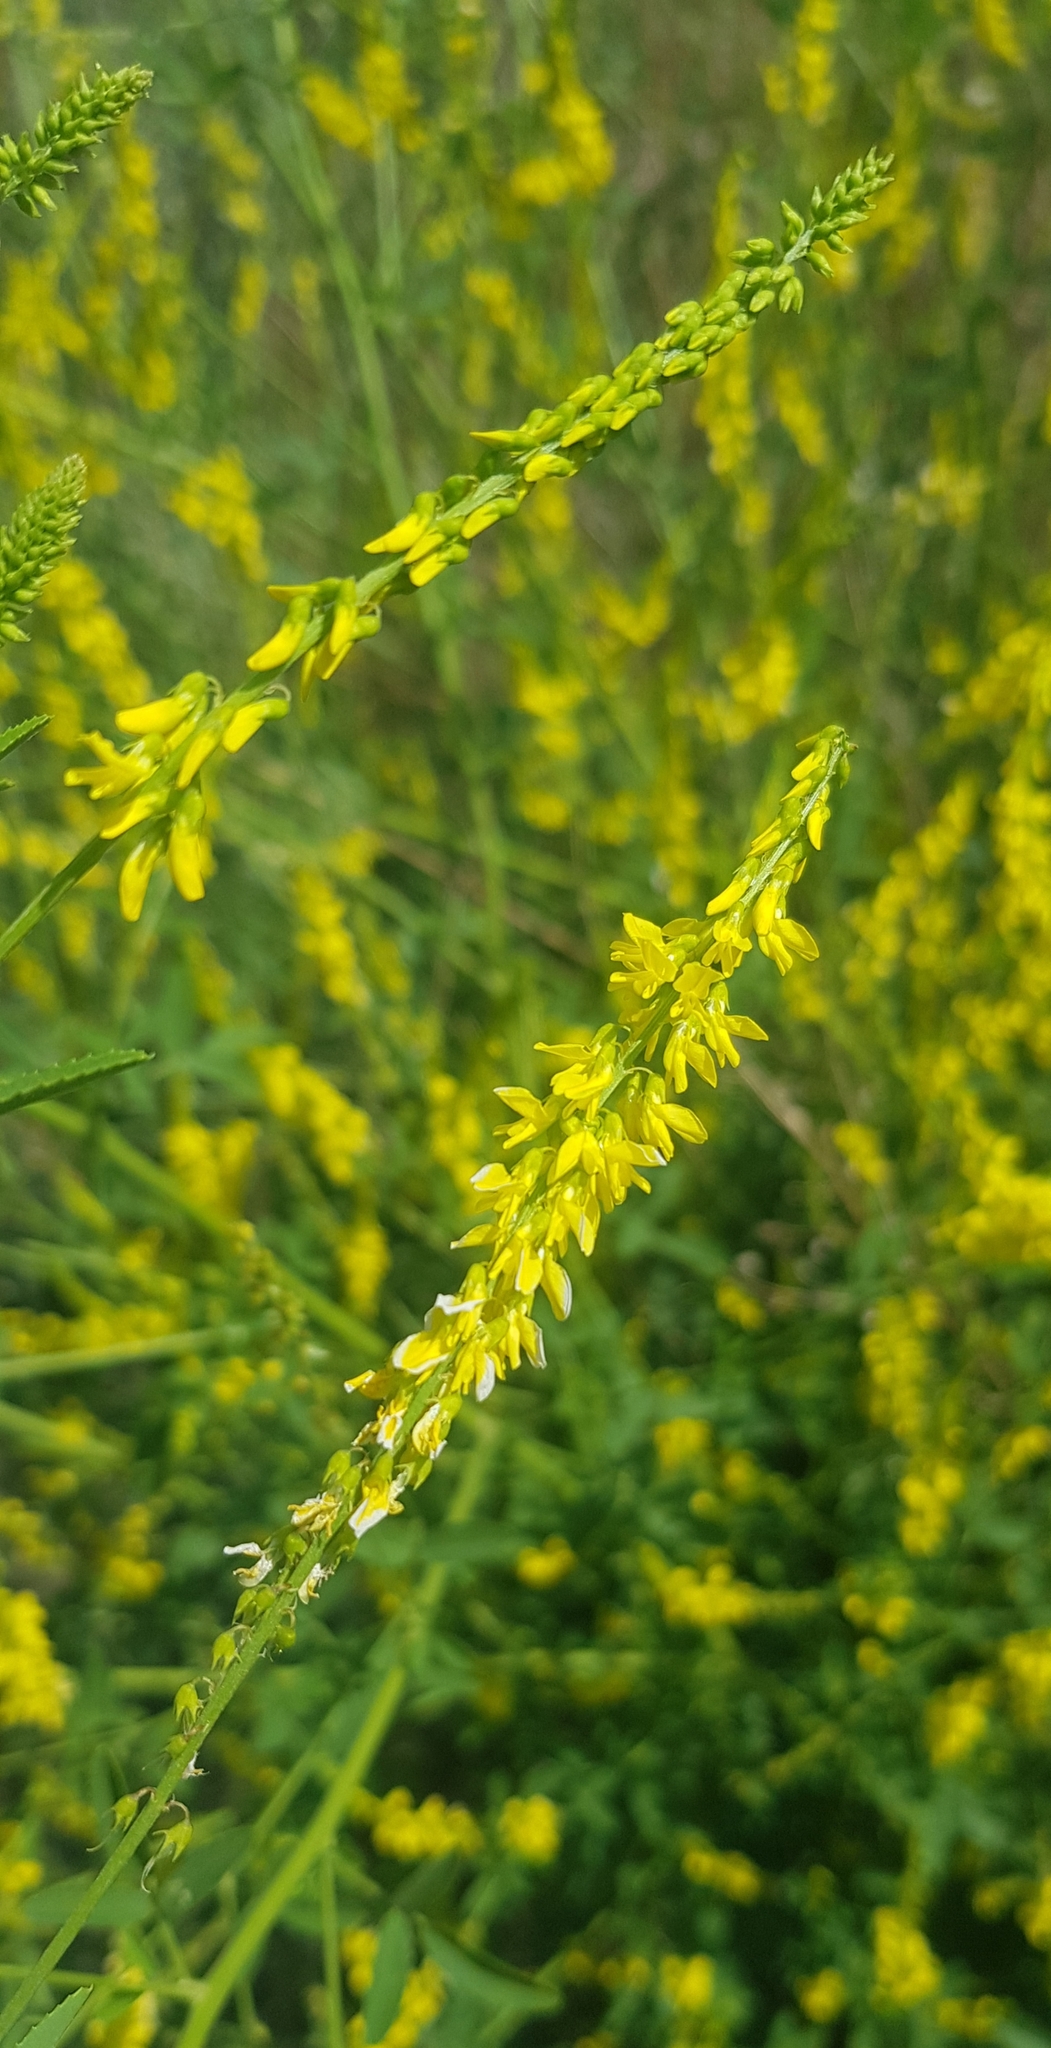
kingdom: Plantae
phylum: Tracheophyta
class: Magnoliopsida
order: Fabales
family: Fabaceae
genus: Melilotus
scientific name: Melilotus officinalis
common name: Sweetclover
